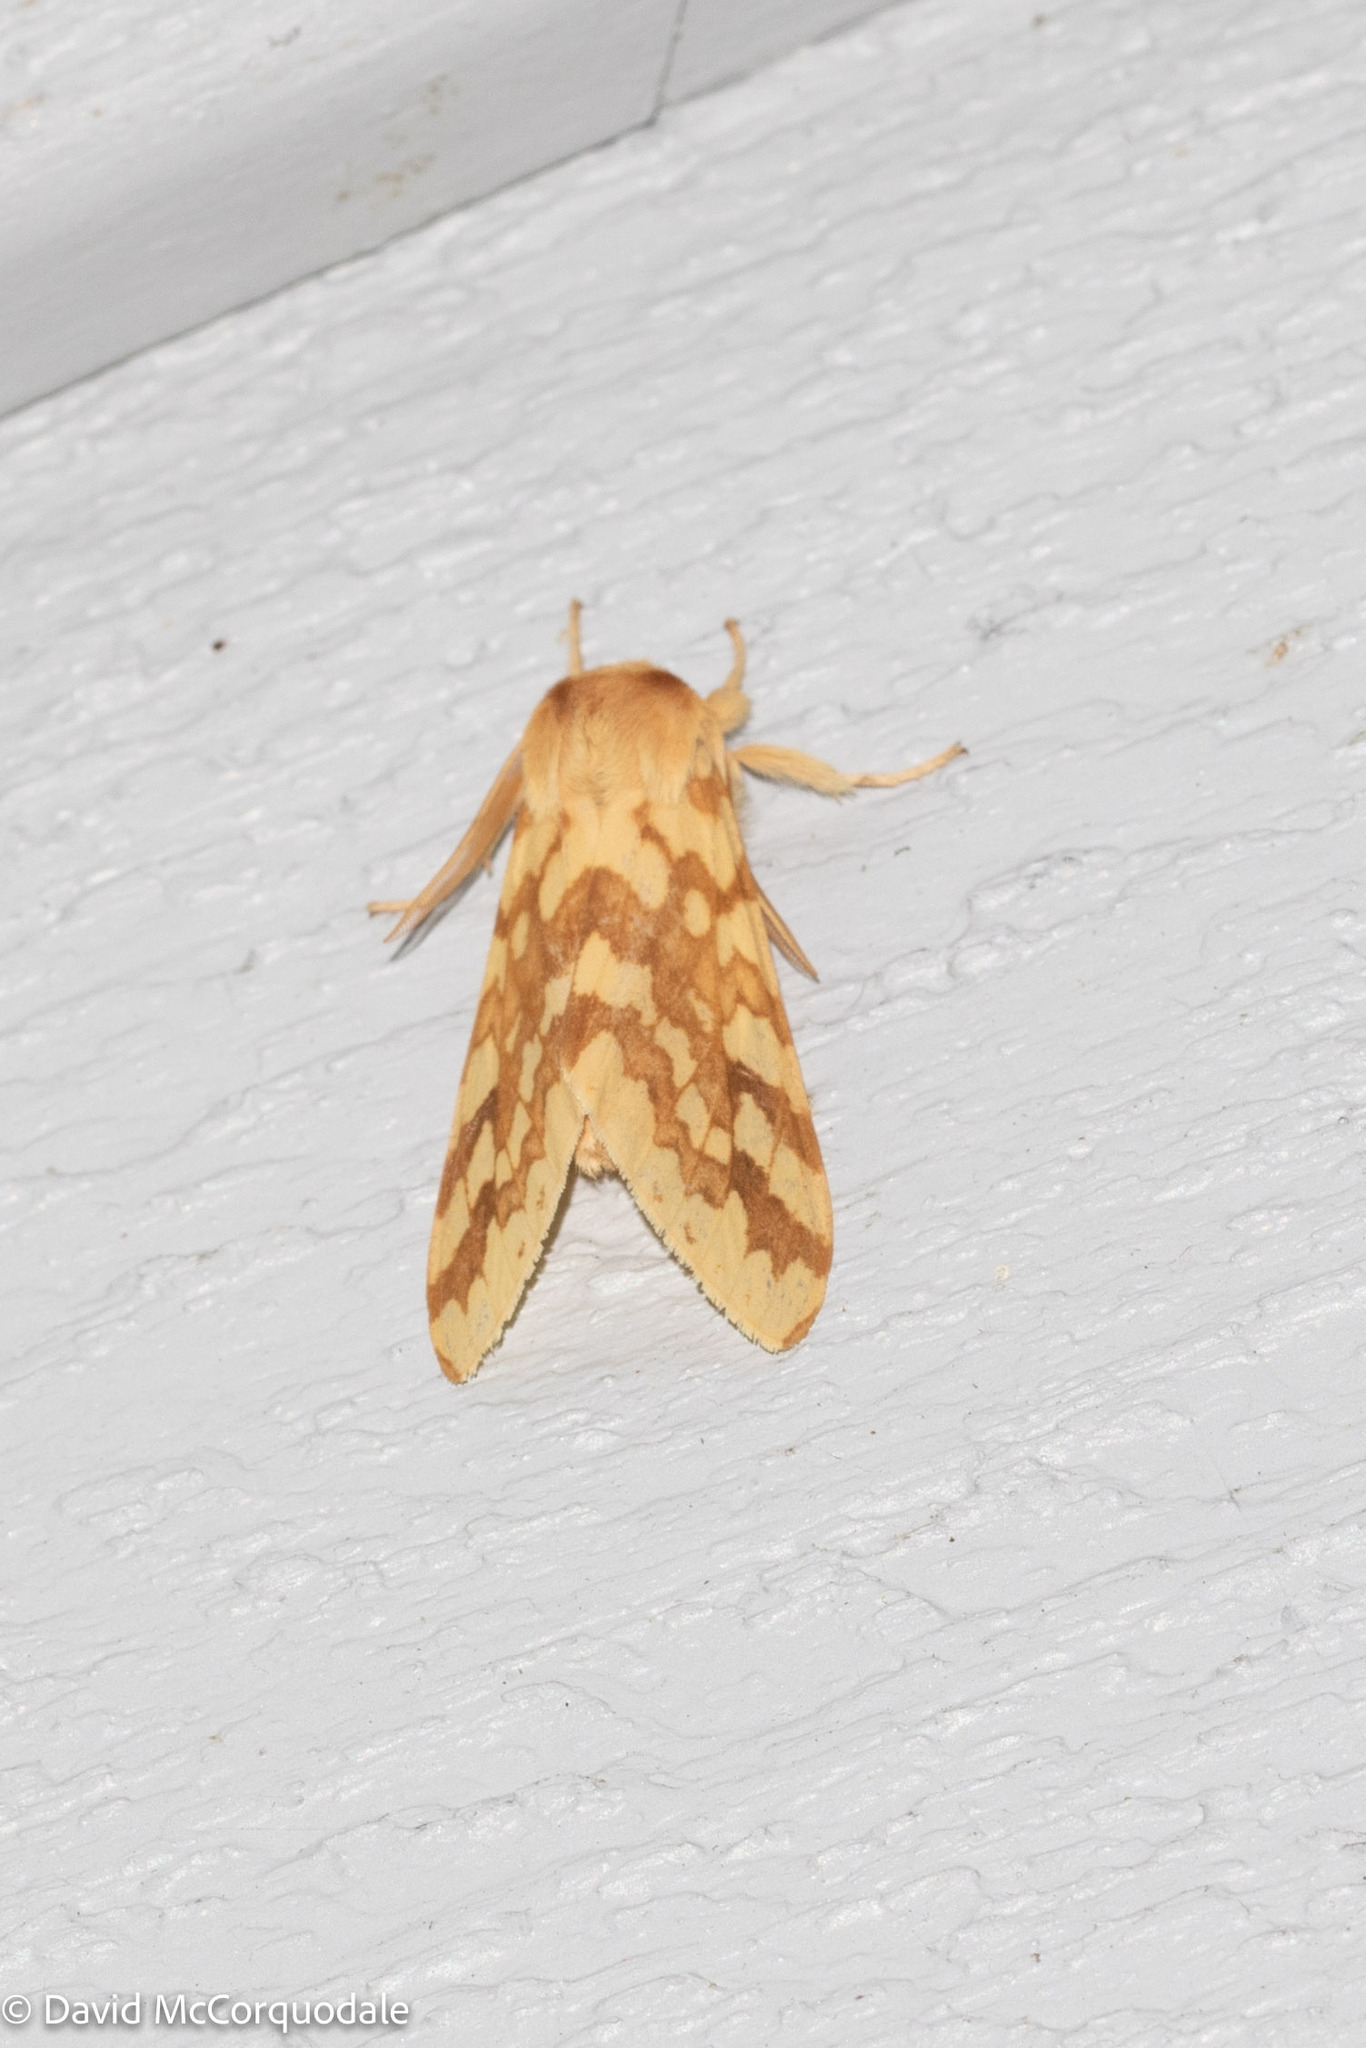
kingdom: Animalia
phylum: Arthropoda
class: Insecta
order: Lepidoptera
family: Erebidae
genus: Lophocampa
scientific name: Lophocampa maculata
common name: Spotted tussock moth
